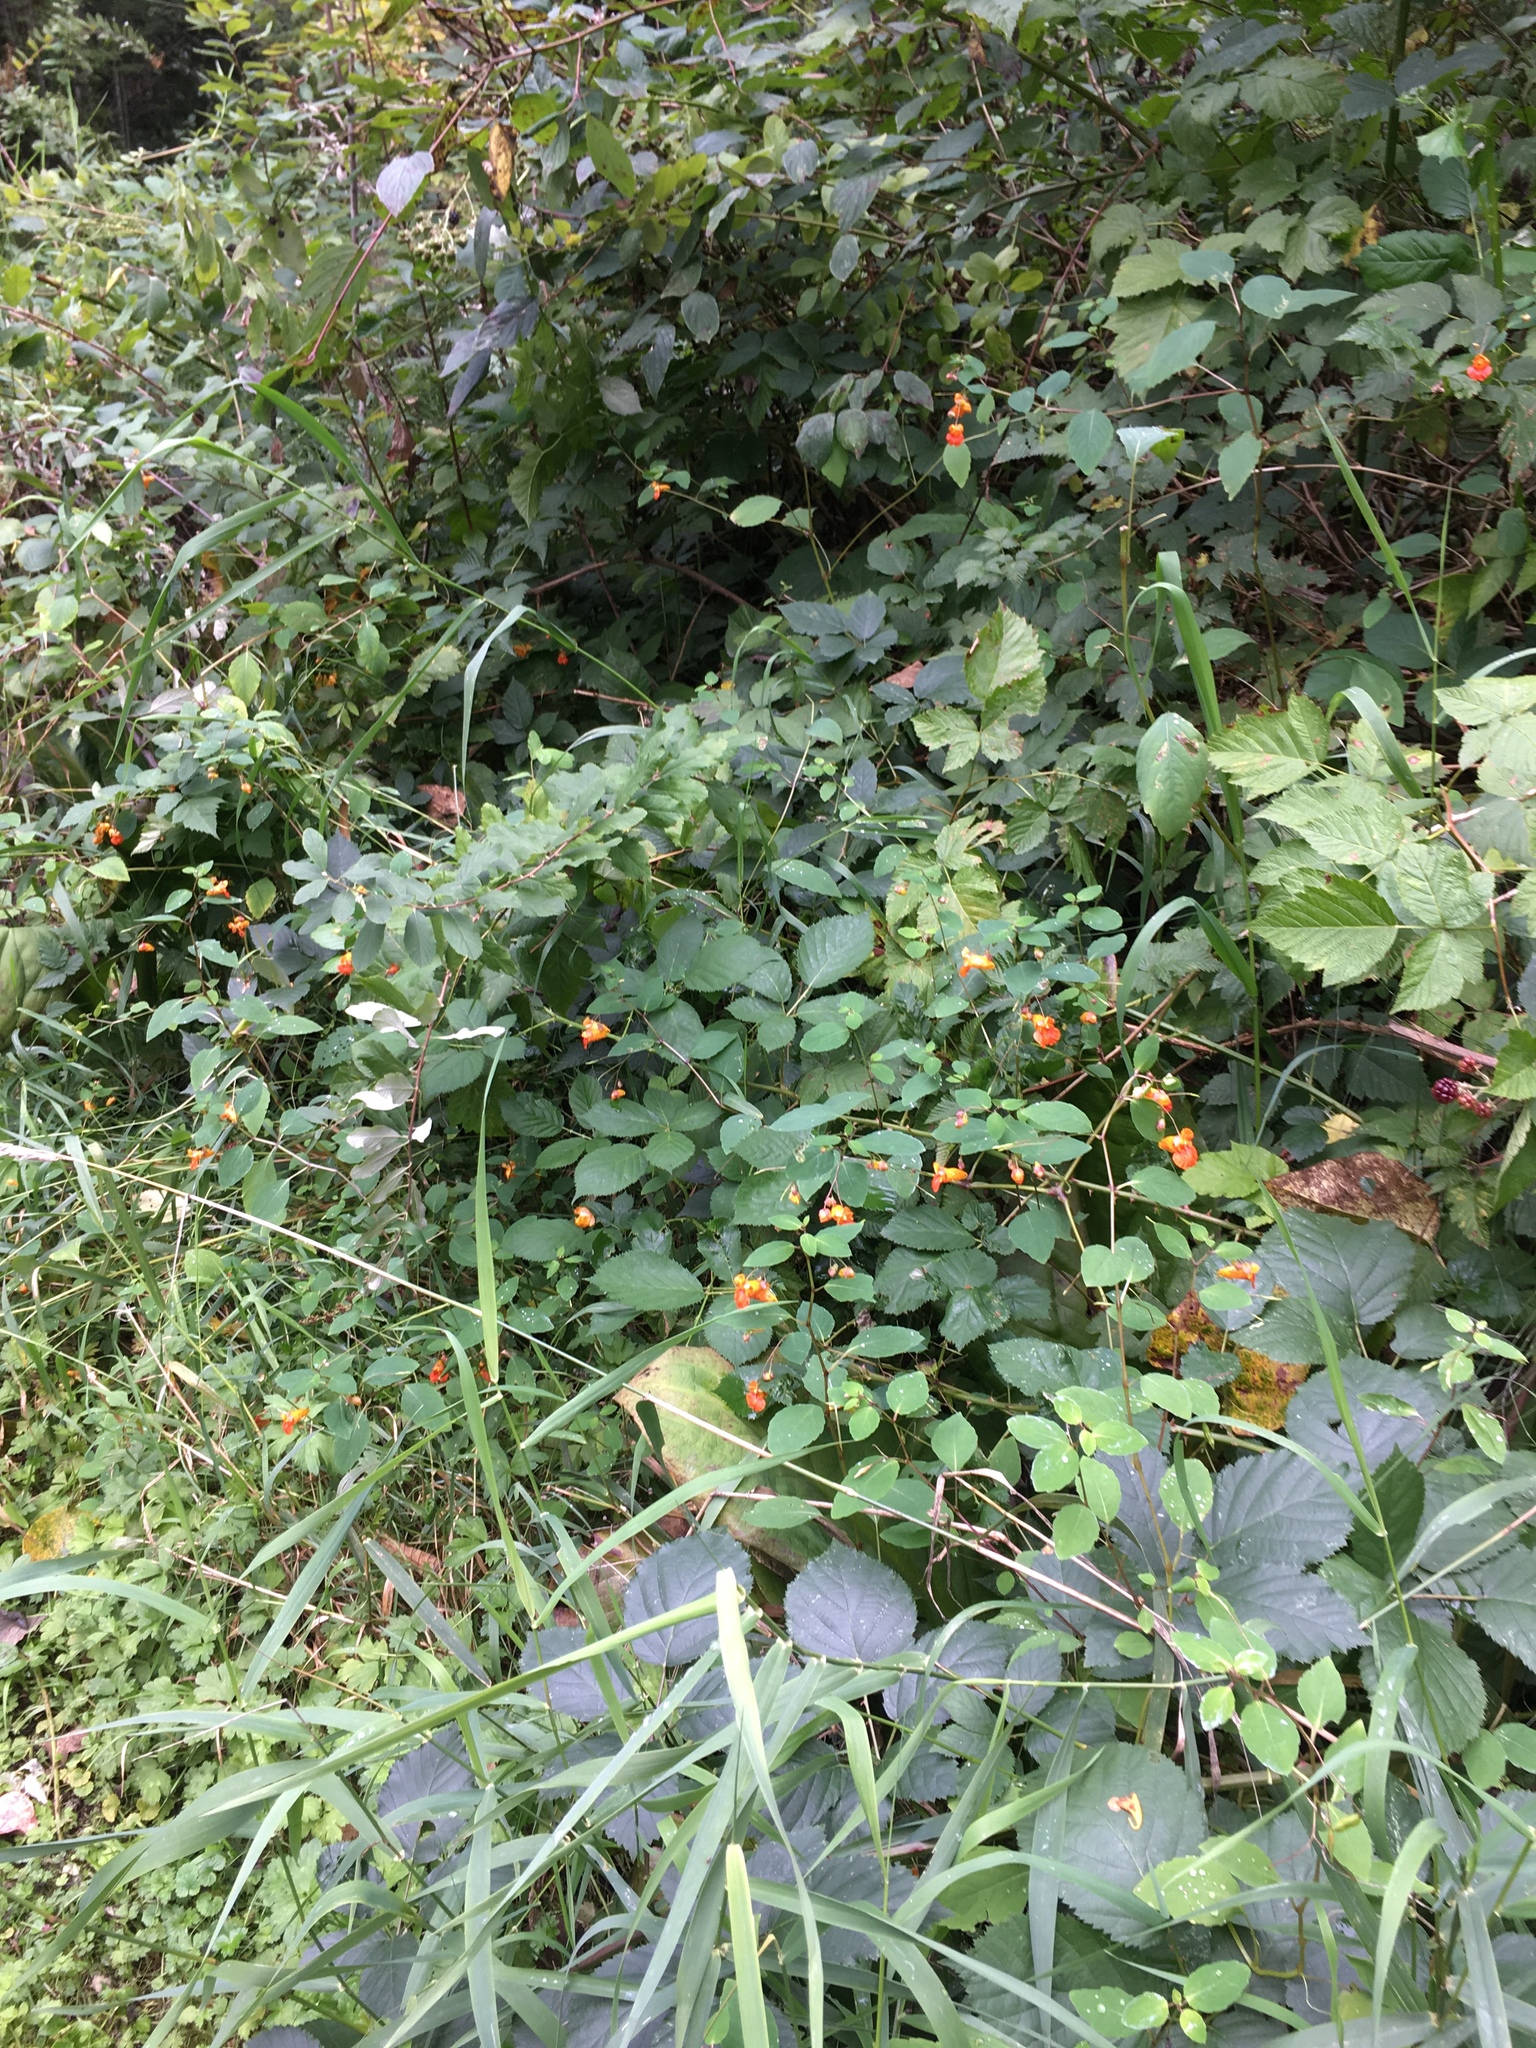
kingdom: Plantae
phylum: Tracheophyta
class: Magnoliopsida
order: Ericales
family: Balsaminaceae
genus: Impatiens
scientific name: Impatiens capensis
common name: Orange balsam
